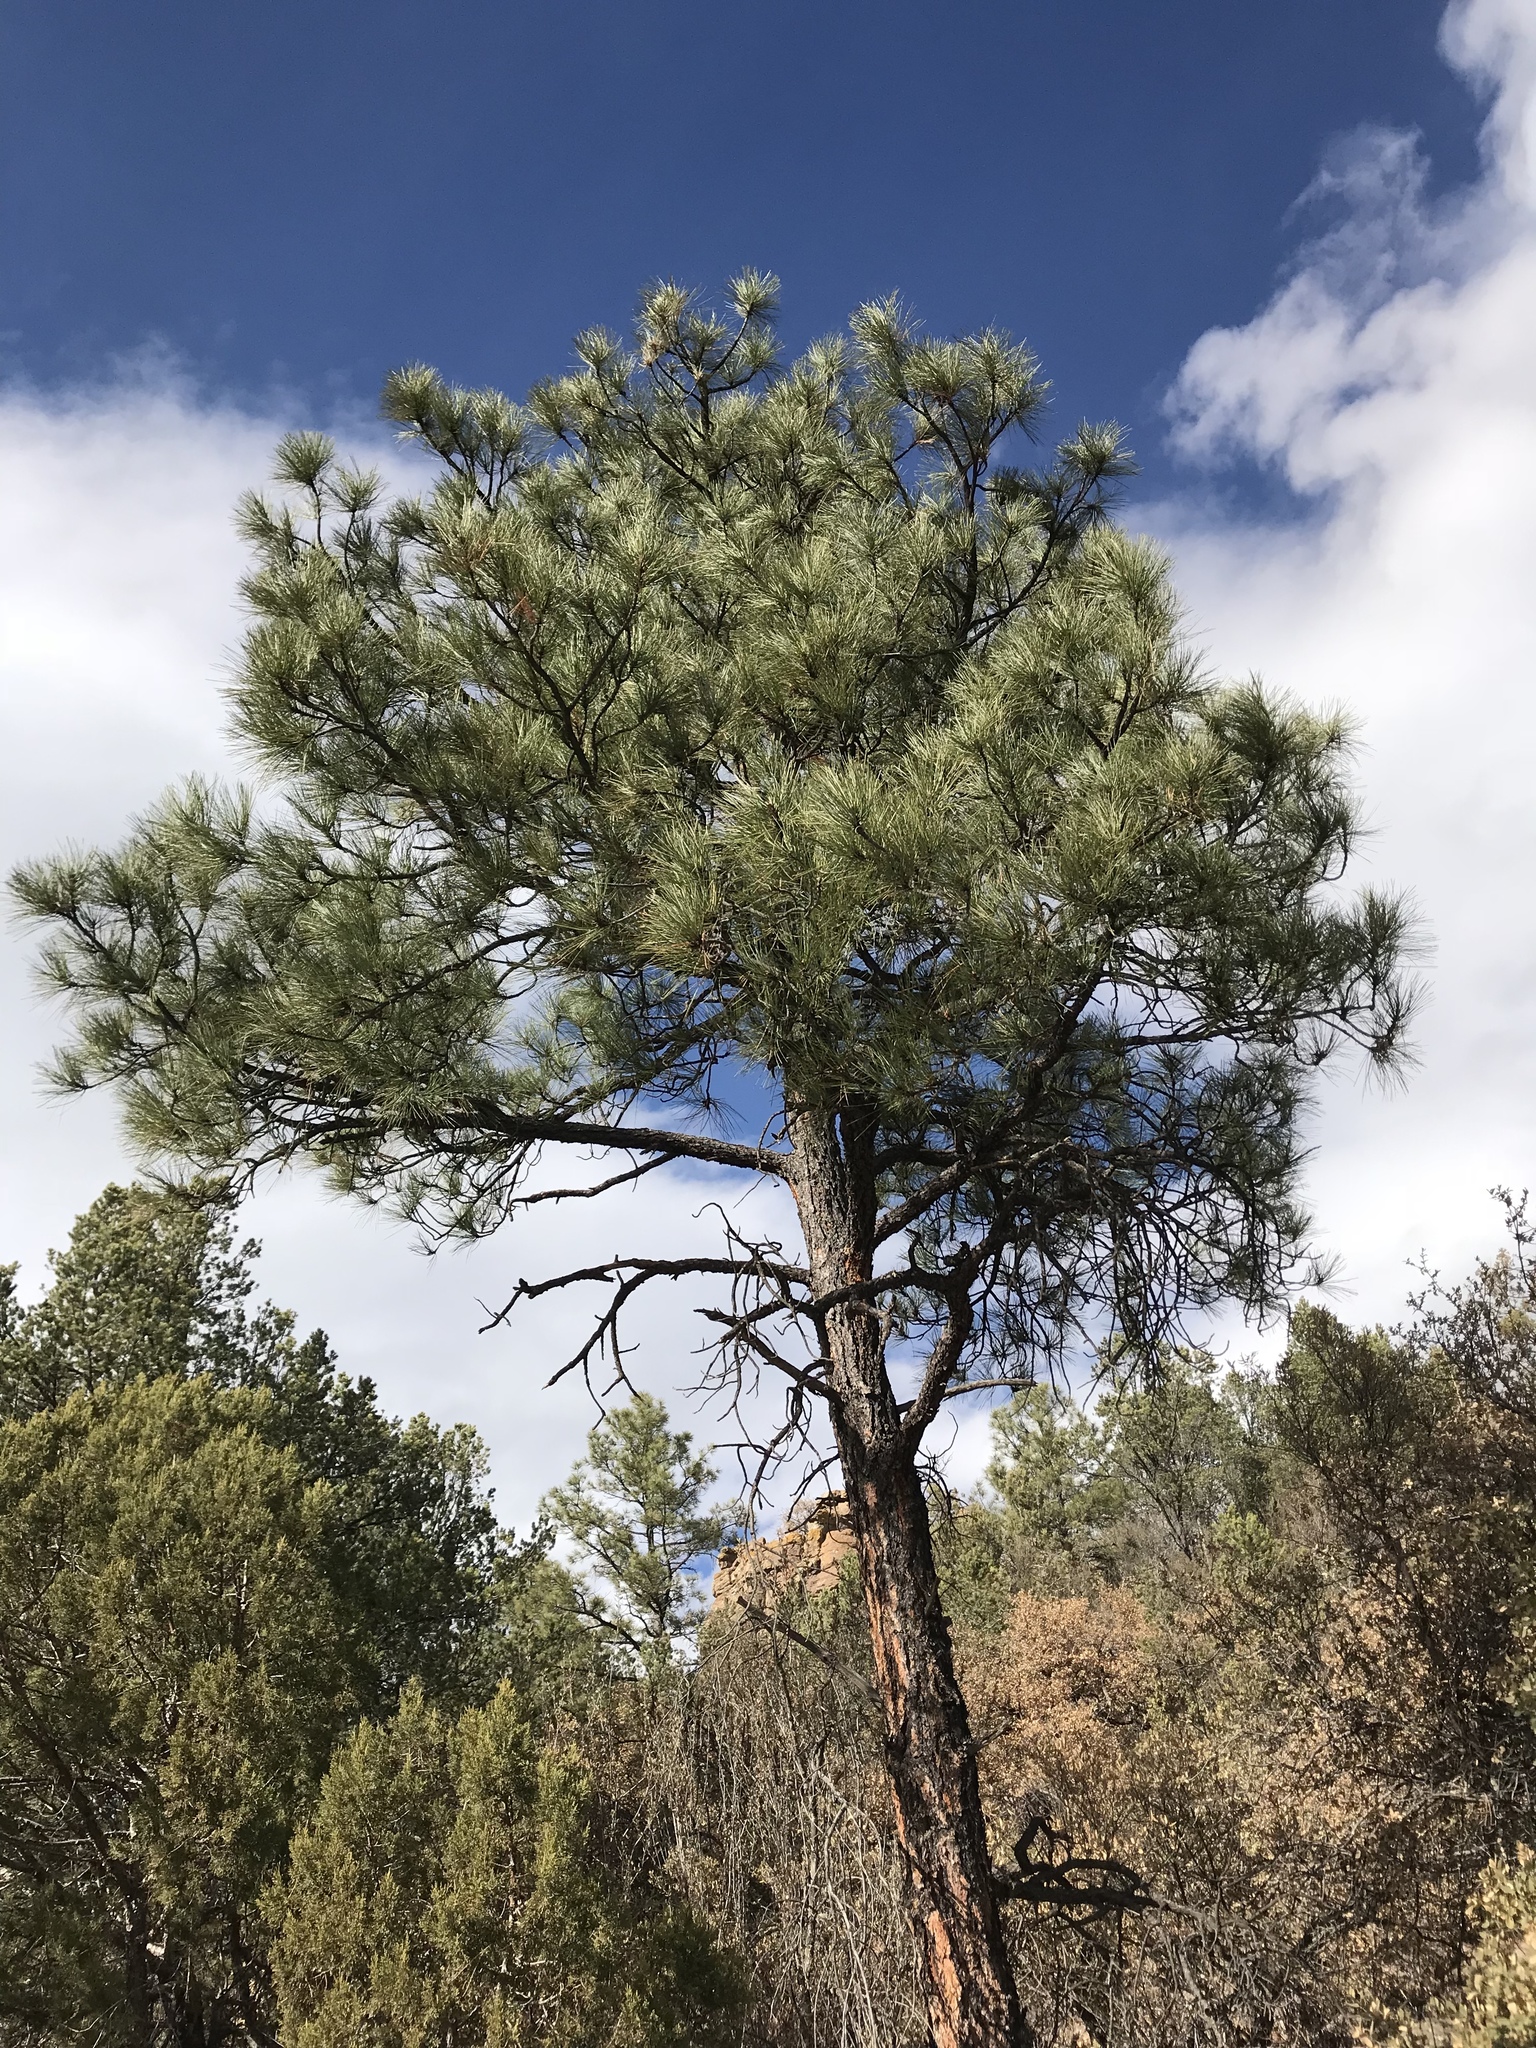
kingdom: Plantae
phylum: Tracheophyta
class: Pinopsida
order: Pinales
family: Pinaceae
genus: Pinus
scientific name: Pinus ponderosa
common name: Western yellow-pine
